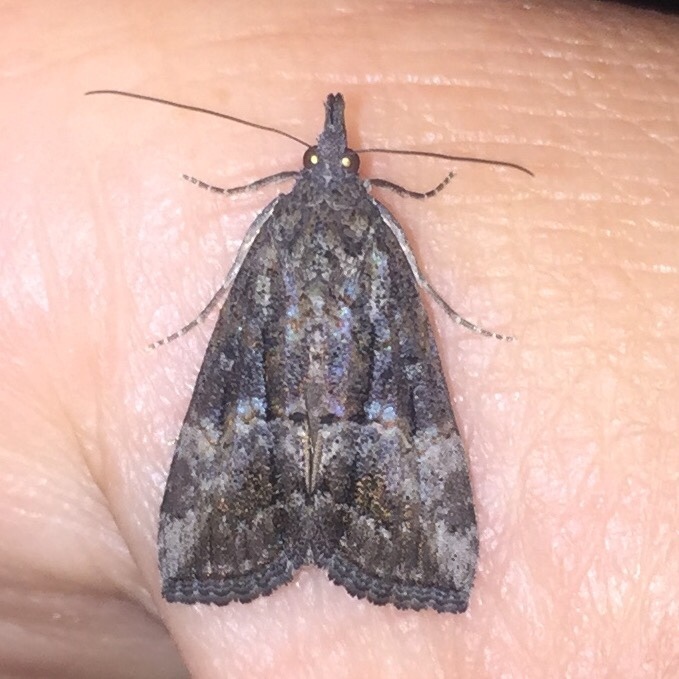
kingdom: Animalia
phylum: Arthropoda
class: Insecta
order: Lepidoptera
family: Erebidae
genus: Hypena
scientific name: Hypena scabra
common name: Green cloverworm
